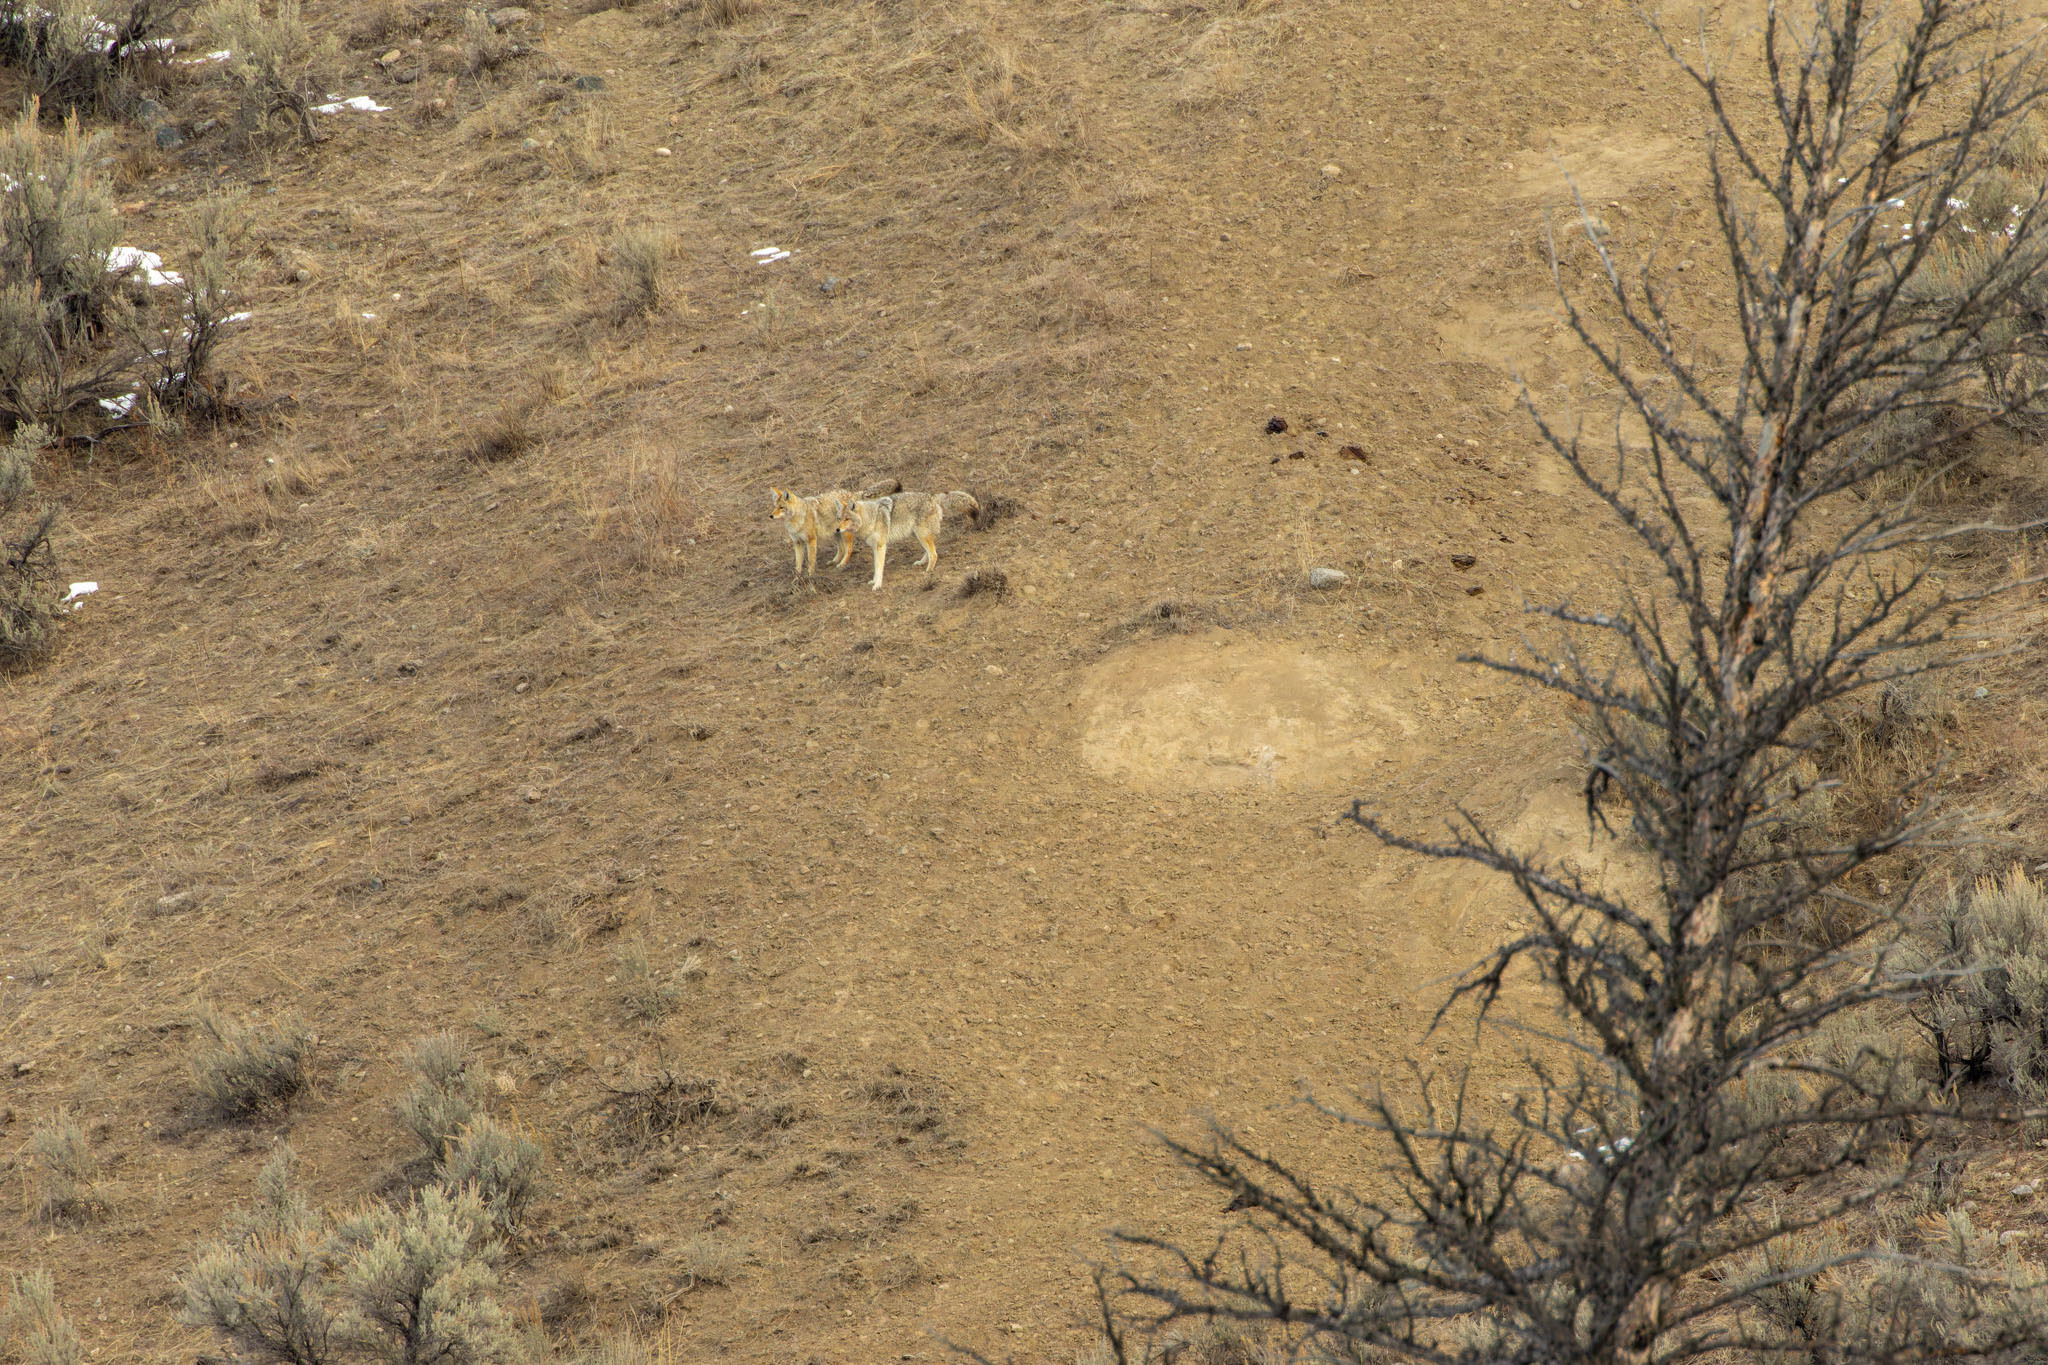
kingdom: Animalia
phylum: Chordata
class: Mammalia
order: Carnivora
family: Canidae
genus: Canis
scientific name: Canis latrans
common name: Coyote
